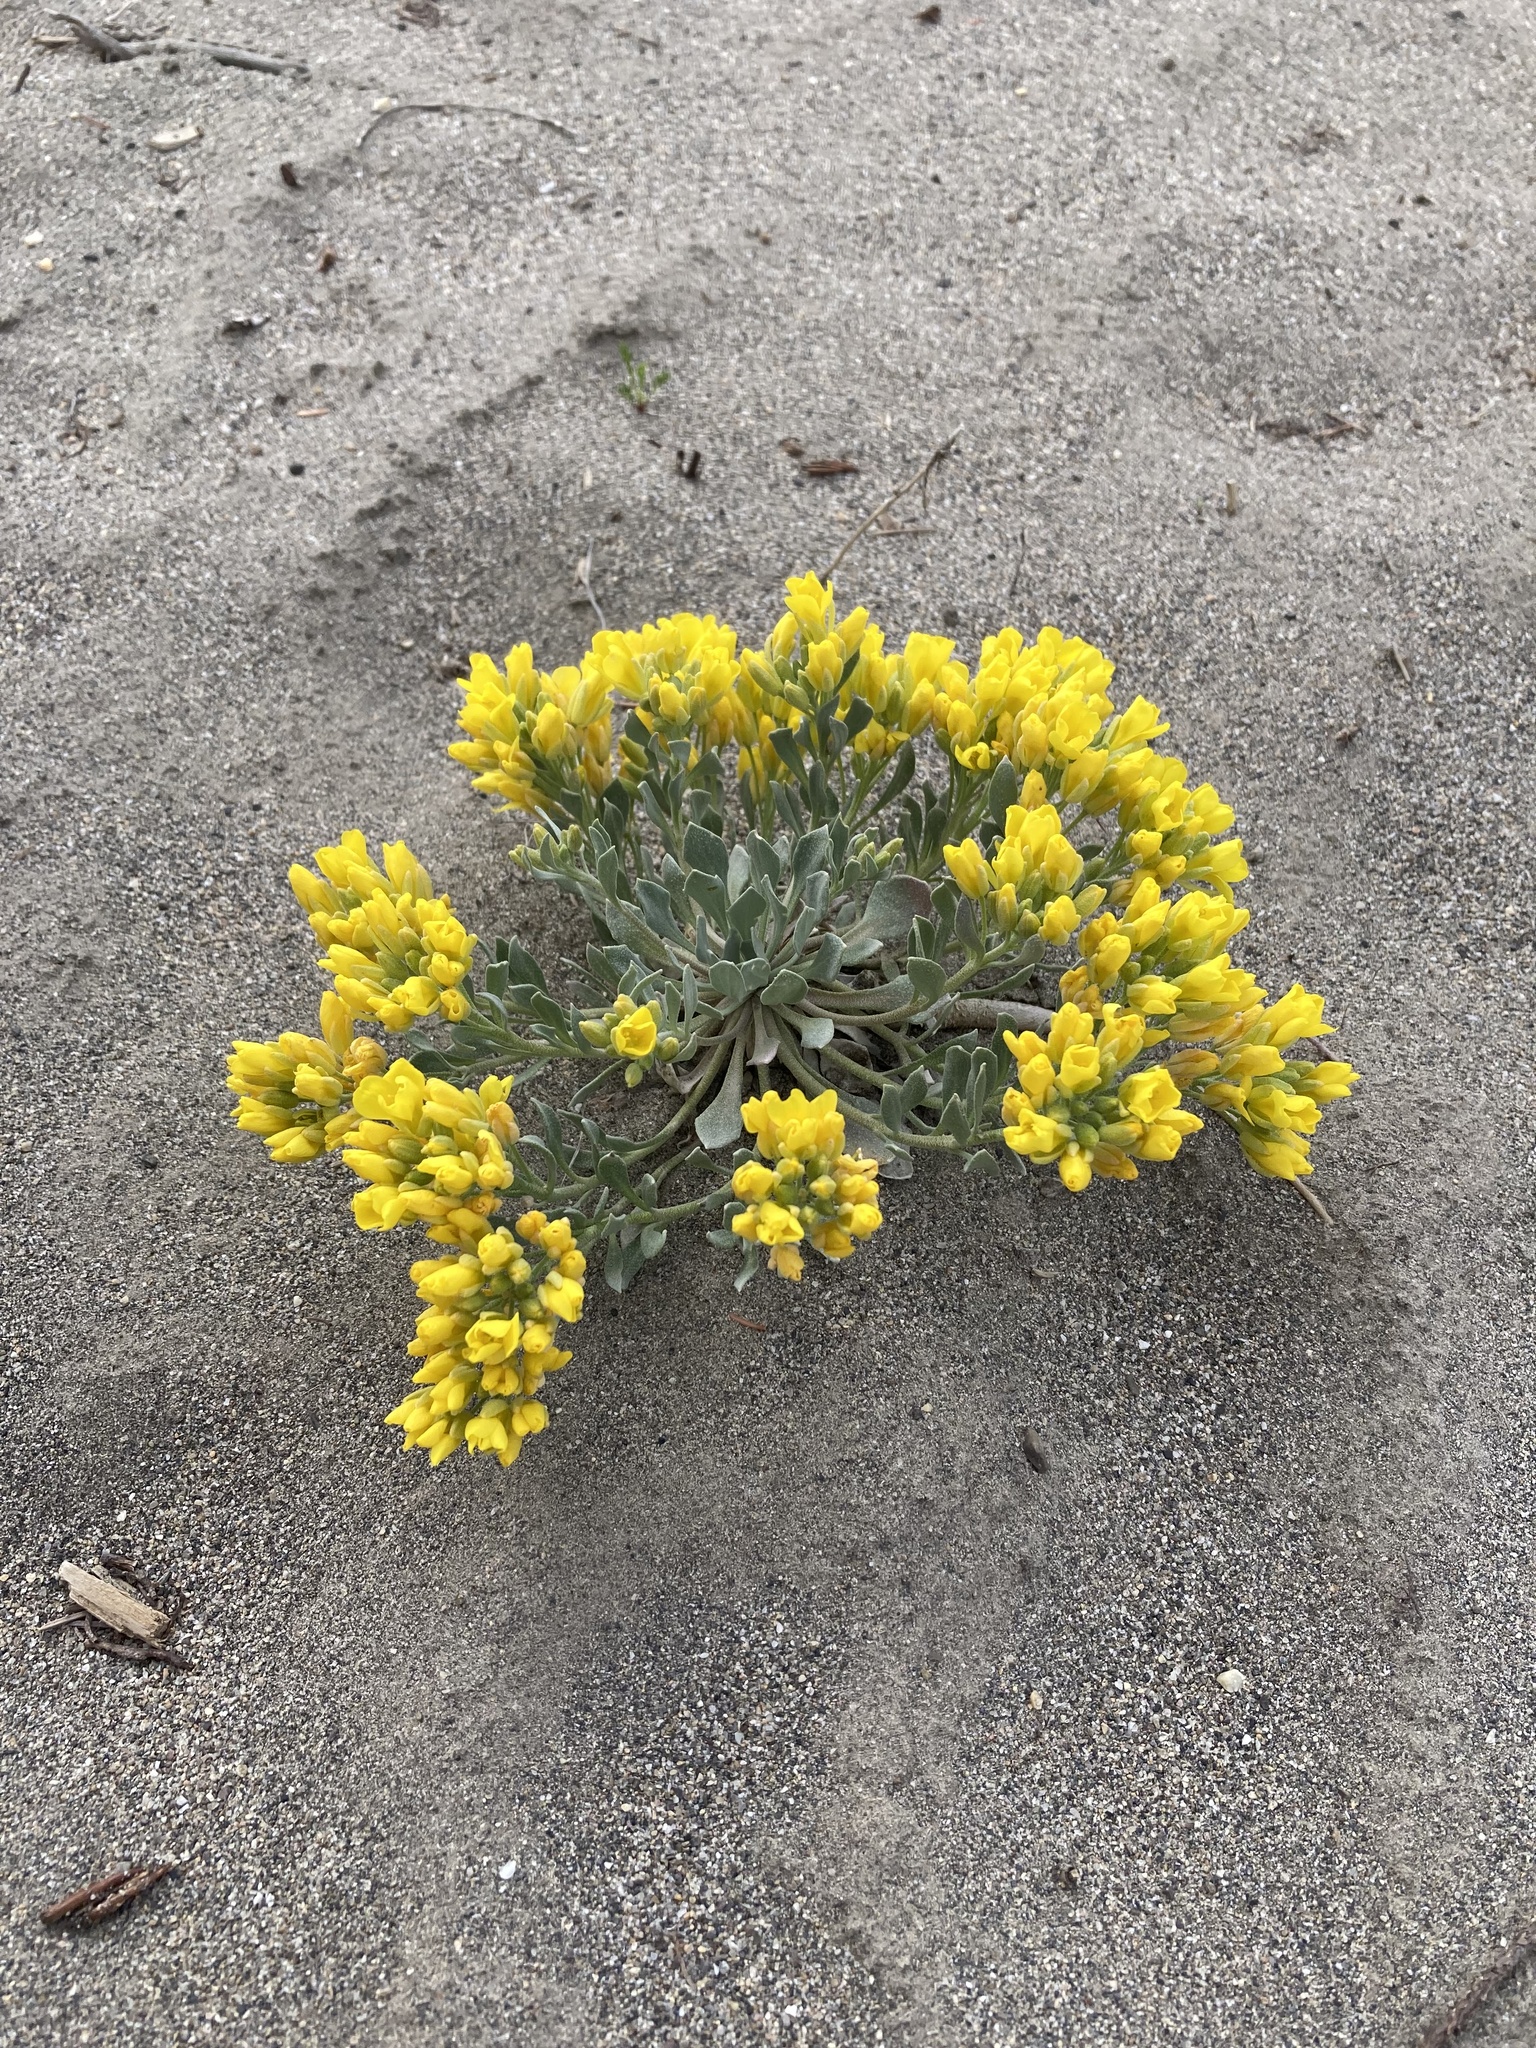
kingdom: Plantae
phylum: Tracheophyta
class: Magnoliopsida
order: Brassicales
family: Brassicaceae
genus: Physaria
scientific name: Physaria didymocarpa
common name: Common twinpod
